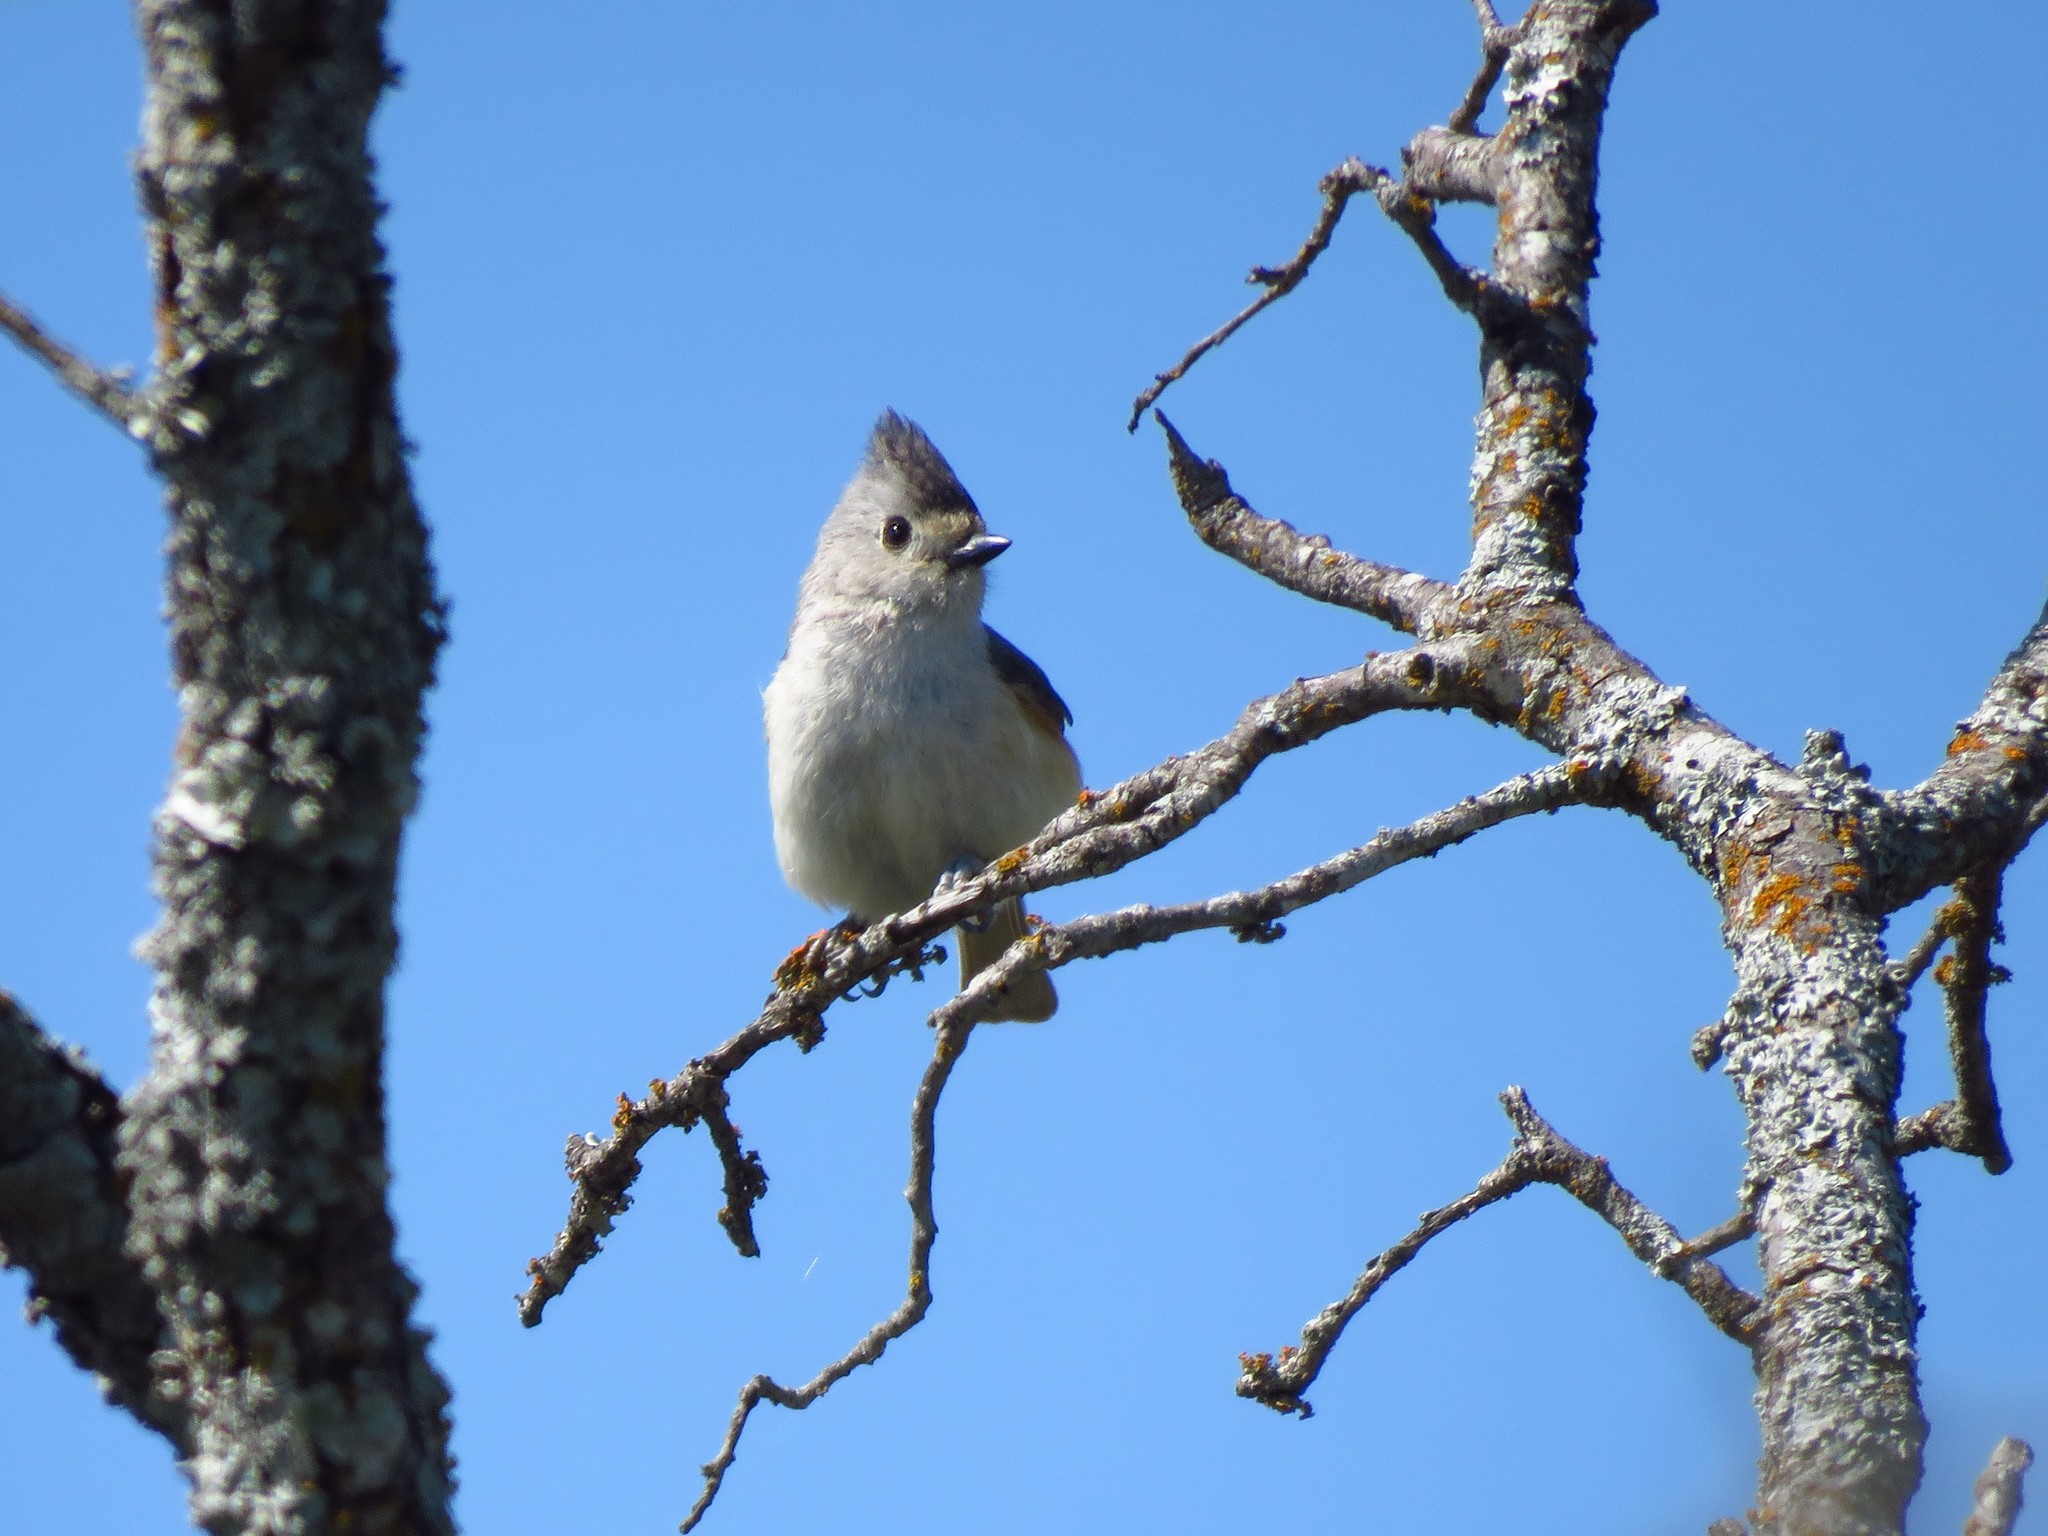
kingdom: Animalia
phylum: Chordata
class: Aves
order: Passeriformes
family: Paridae
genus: Baeolophus
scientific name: Baeolophus atricristatus
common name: Black-crested titmouse
